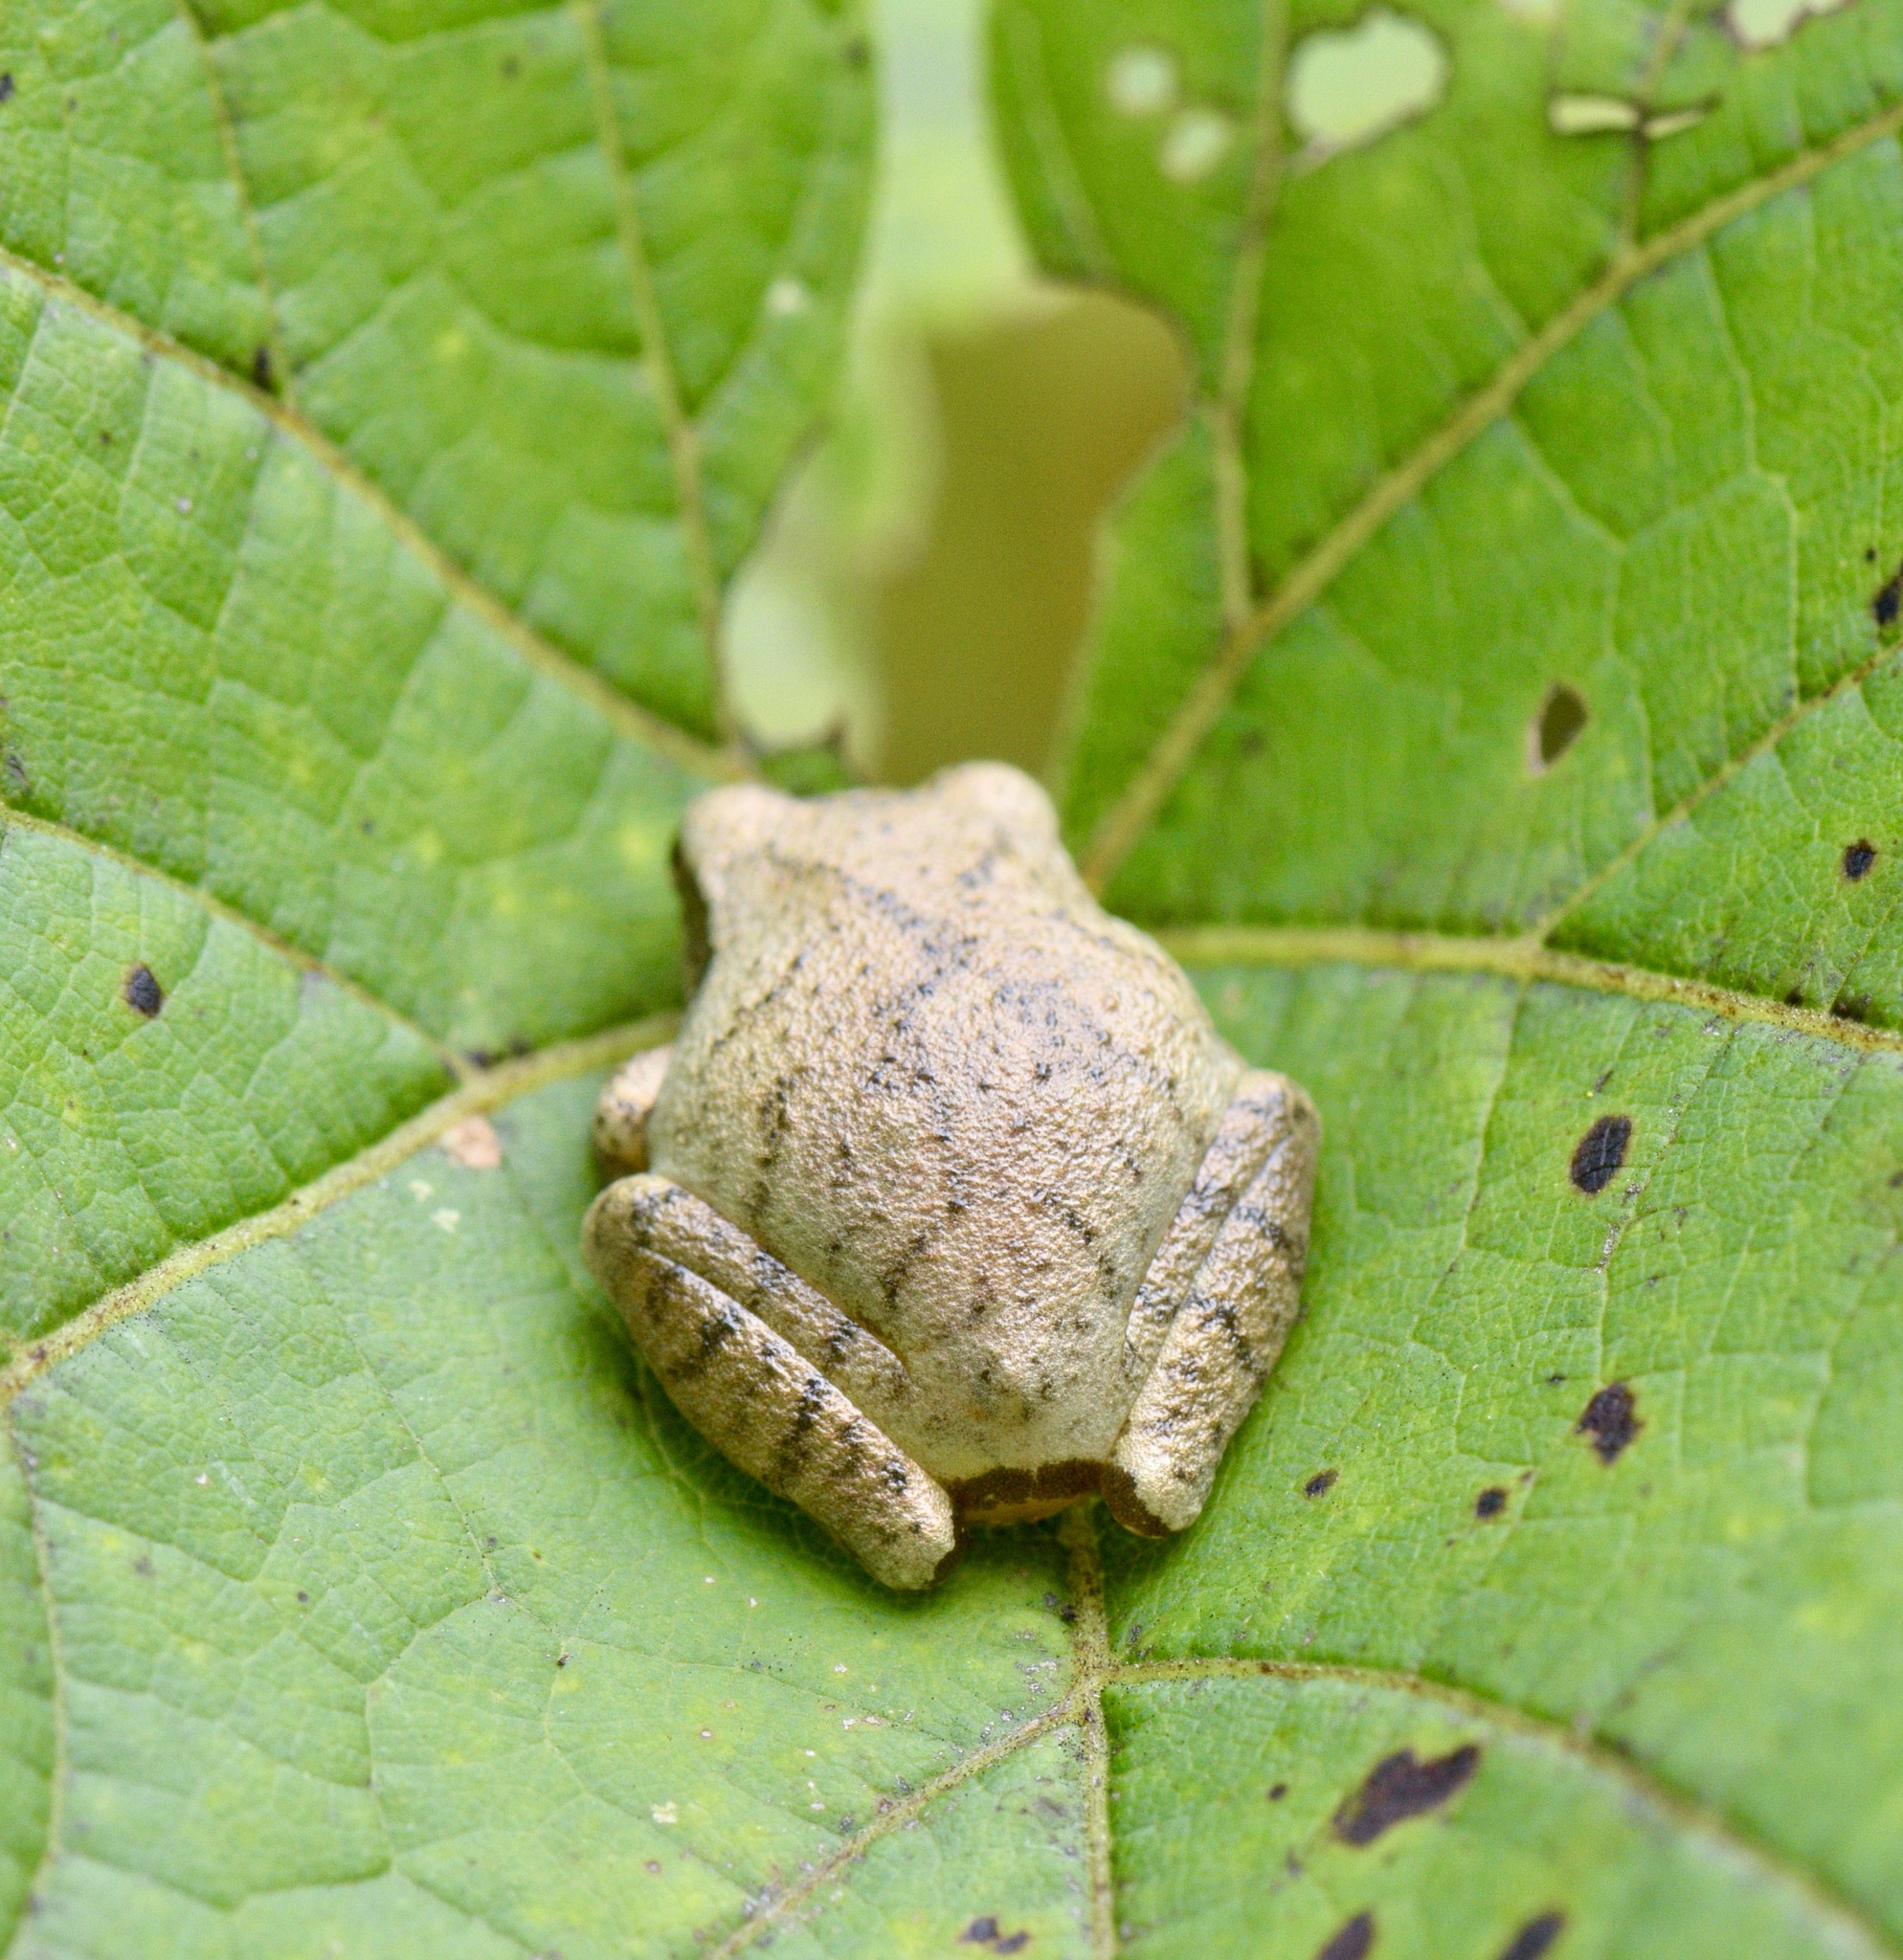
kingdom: Animalia
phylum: Chordata
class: Amphibia
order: Anura
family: Hylidae
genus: Pseudacris
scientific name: Pseudacris crucifer
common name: Spring peeper
